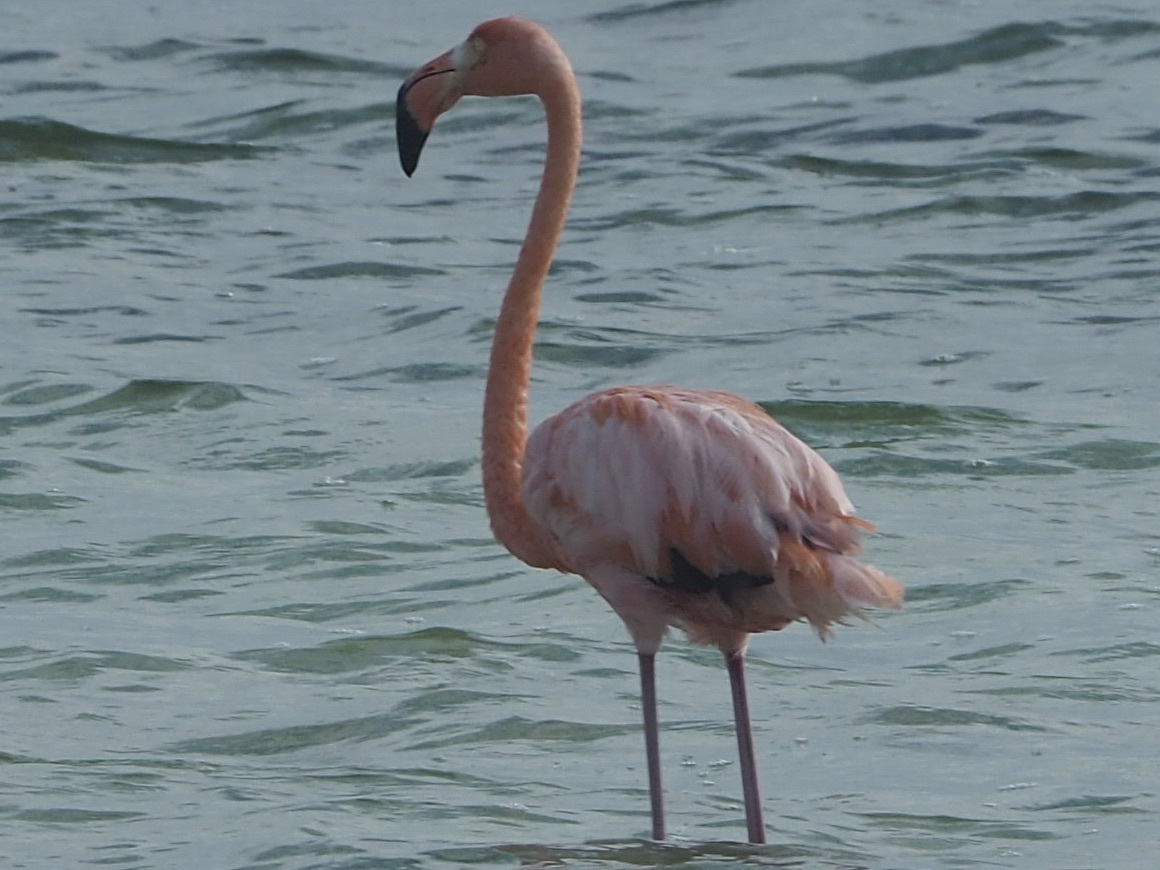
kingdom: Animalia
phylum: Chordata
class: Aves
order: Phoenicopteriformes
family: Phoenicopteridae
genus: Phoenicopterus
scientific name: Phoenicopterus ruber
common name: American flamingo
